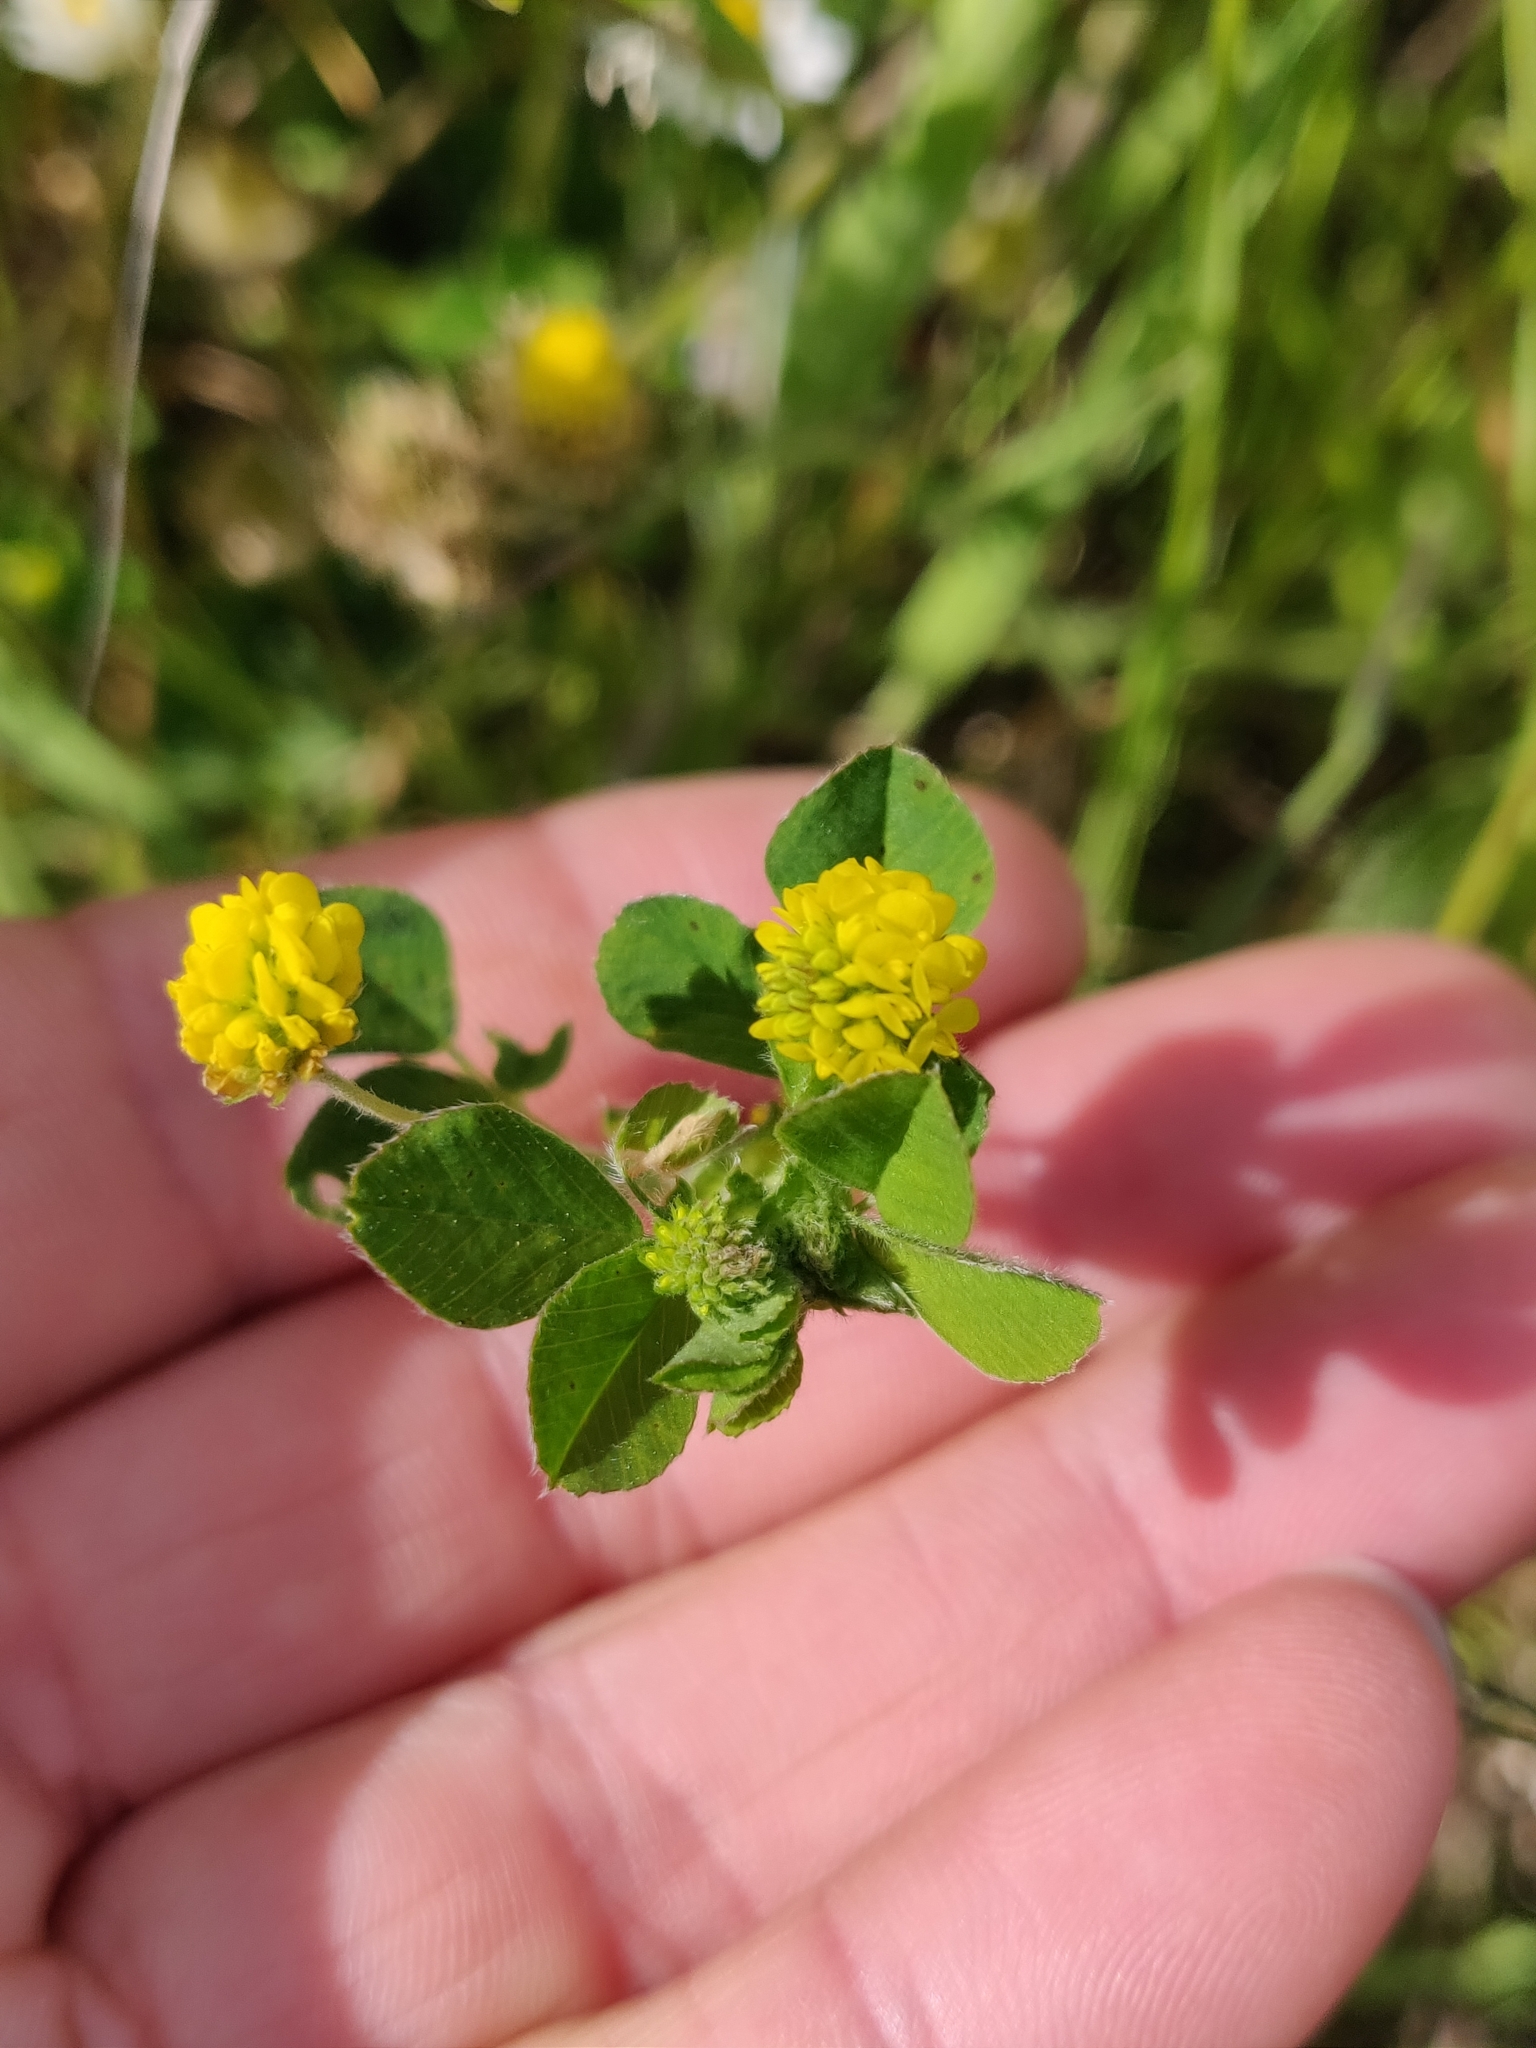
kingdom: Plantae
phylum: Tracheophyta
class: Magnoliopsida
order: Fabales
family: Fabaceae
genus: Medicago
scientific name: Medicago lupulina
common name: Black medick
